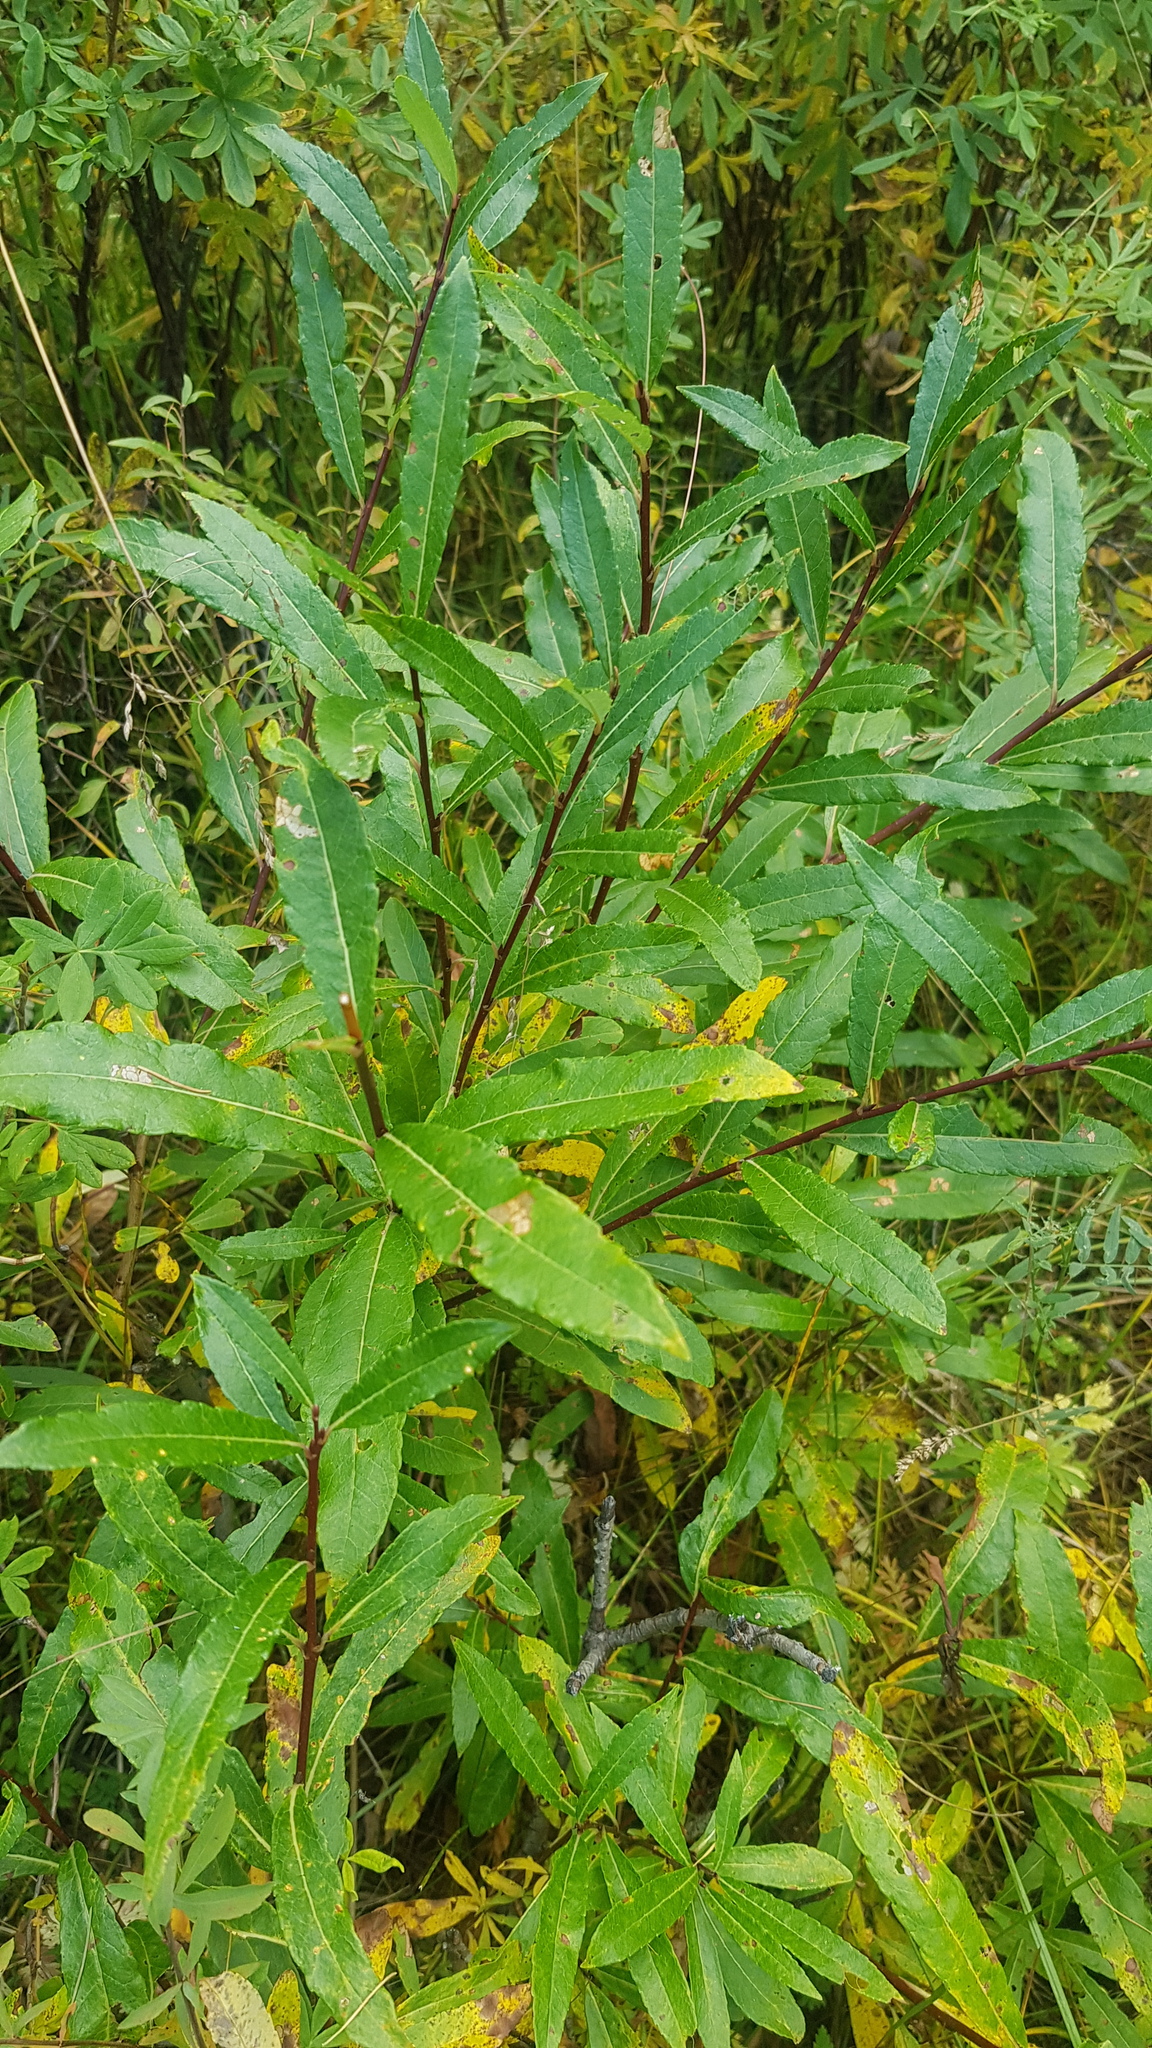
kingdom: Plantae
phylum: Tracheophyta
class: Magnoliopsida
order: Malpighiales
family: Salicaceae
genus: Salix
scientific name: Salix triandra
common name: Almond willow
